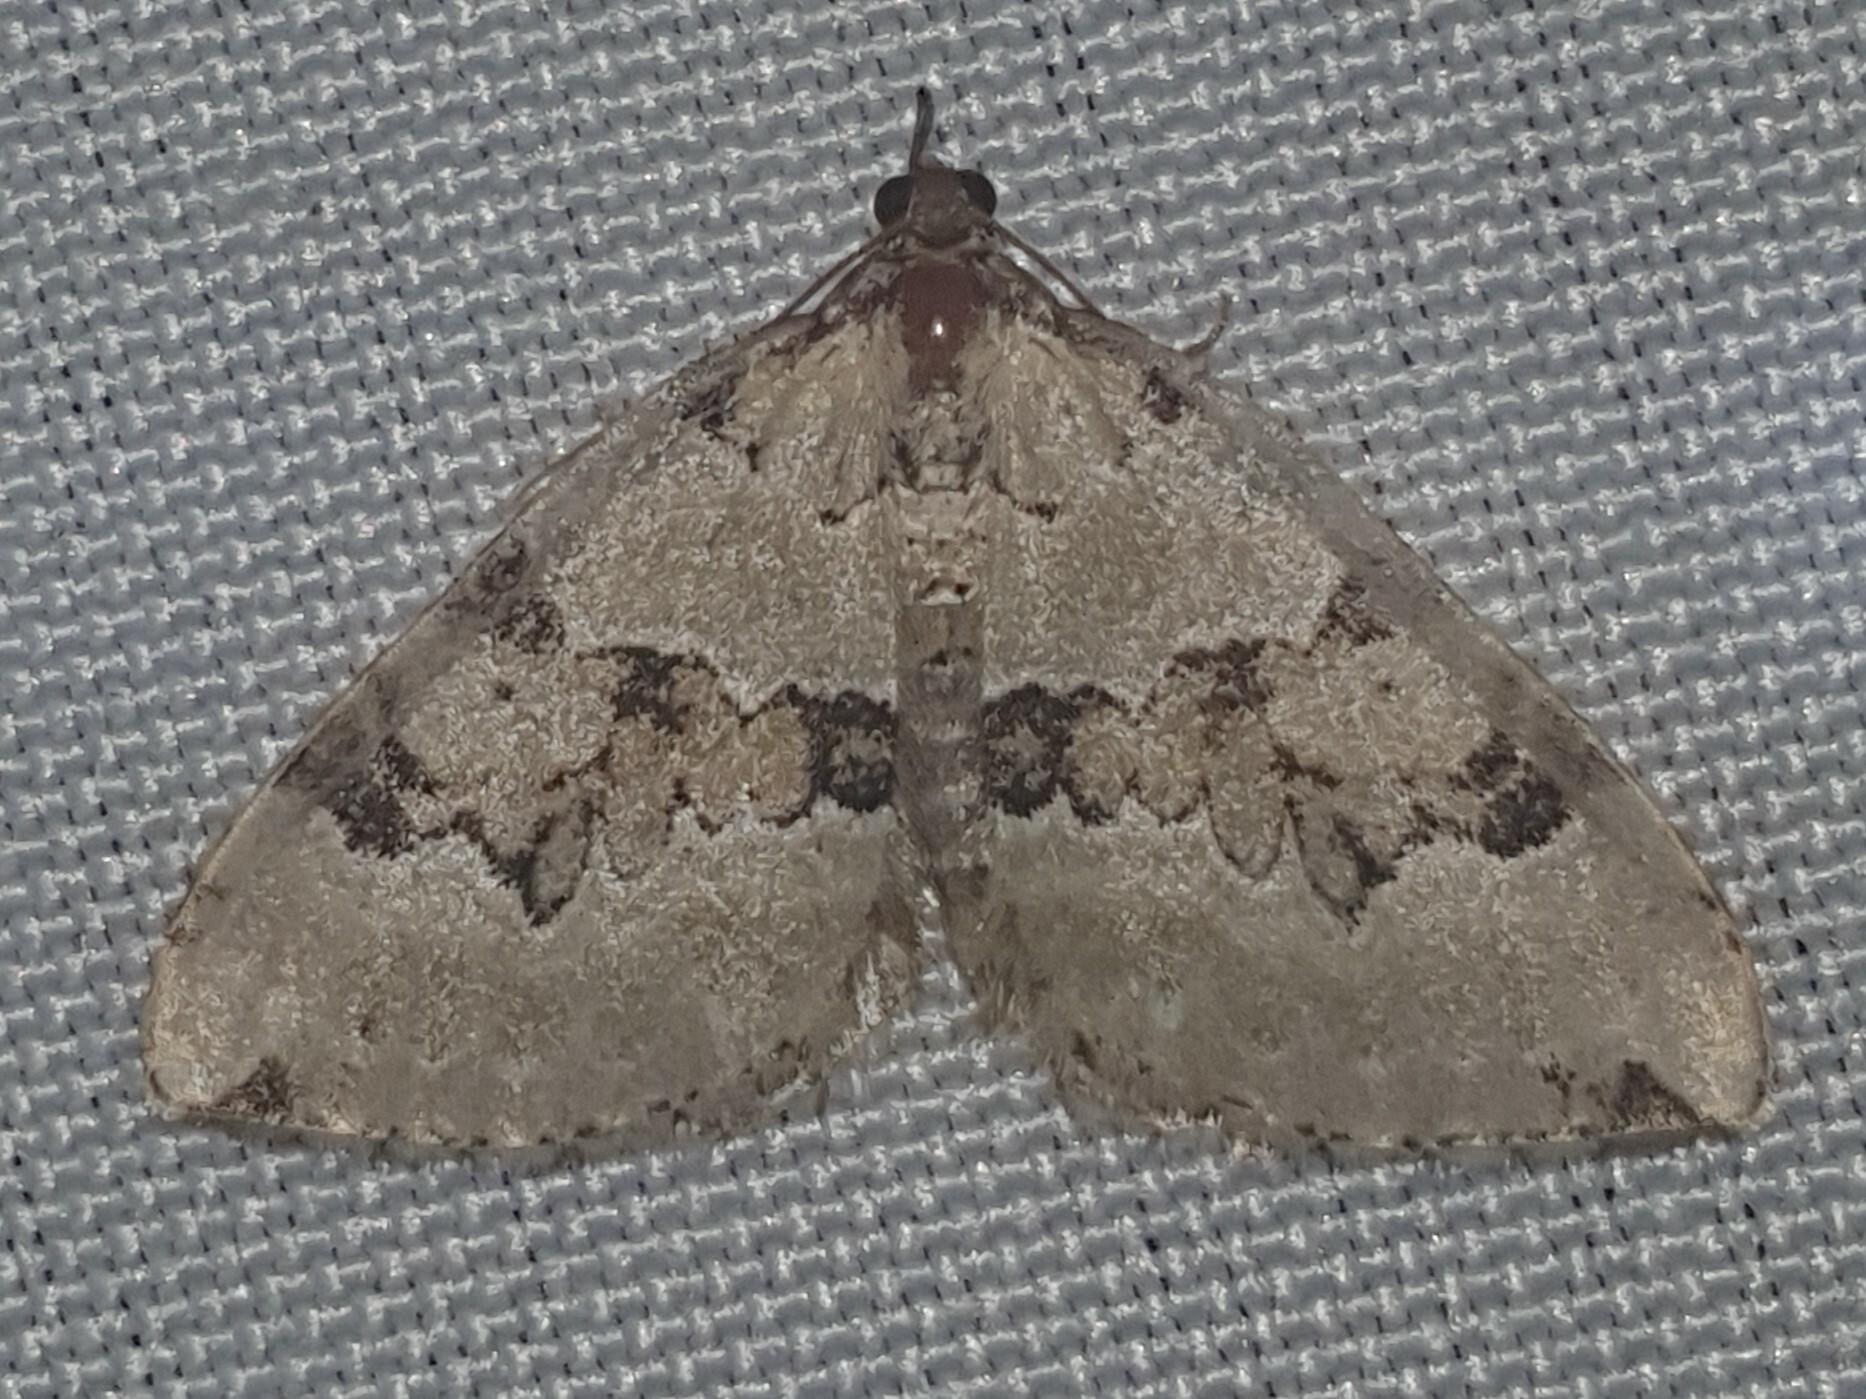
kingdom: Animalia
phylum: Arthropoda
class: Insecta
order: Lepidoptera
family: Geometridae
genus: Colostygia
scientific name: Colostygia pectinataria
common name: Green carpet
